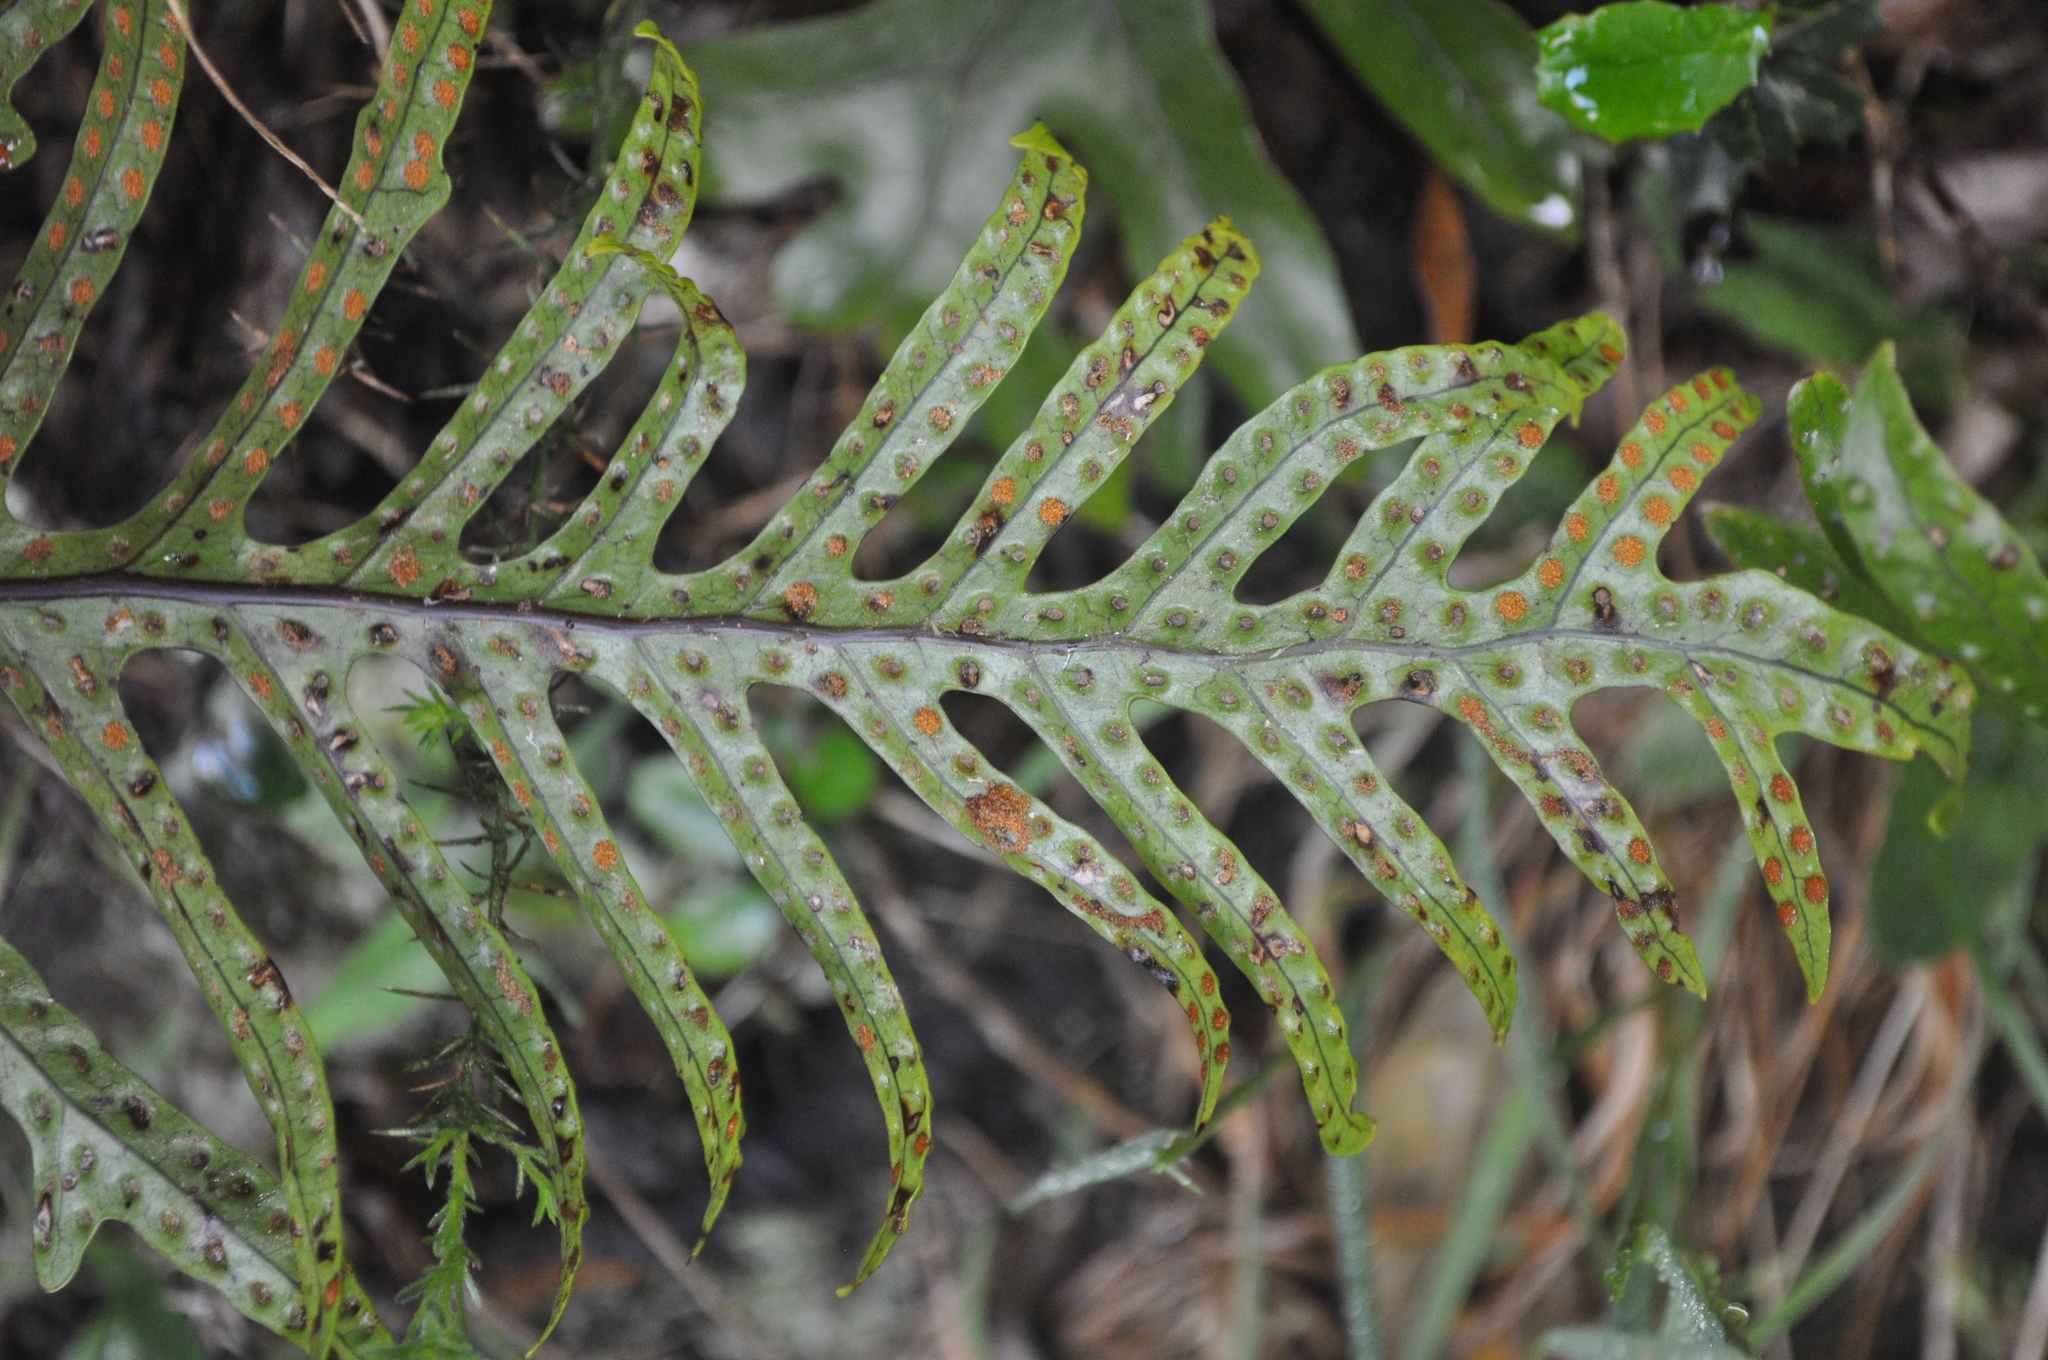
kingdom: Plantae
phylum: Tracheophyta
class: Polypodiopsida
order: Polypodiales
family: Polypodiaceae
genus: Lecanopteris
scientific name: Lecanopteris pustulata
